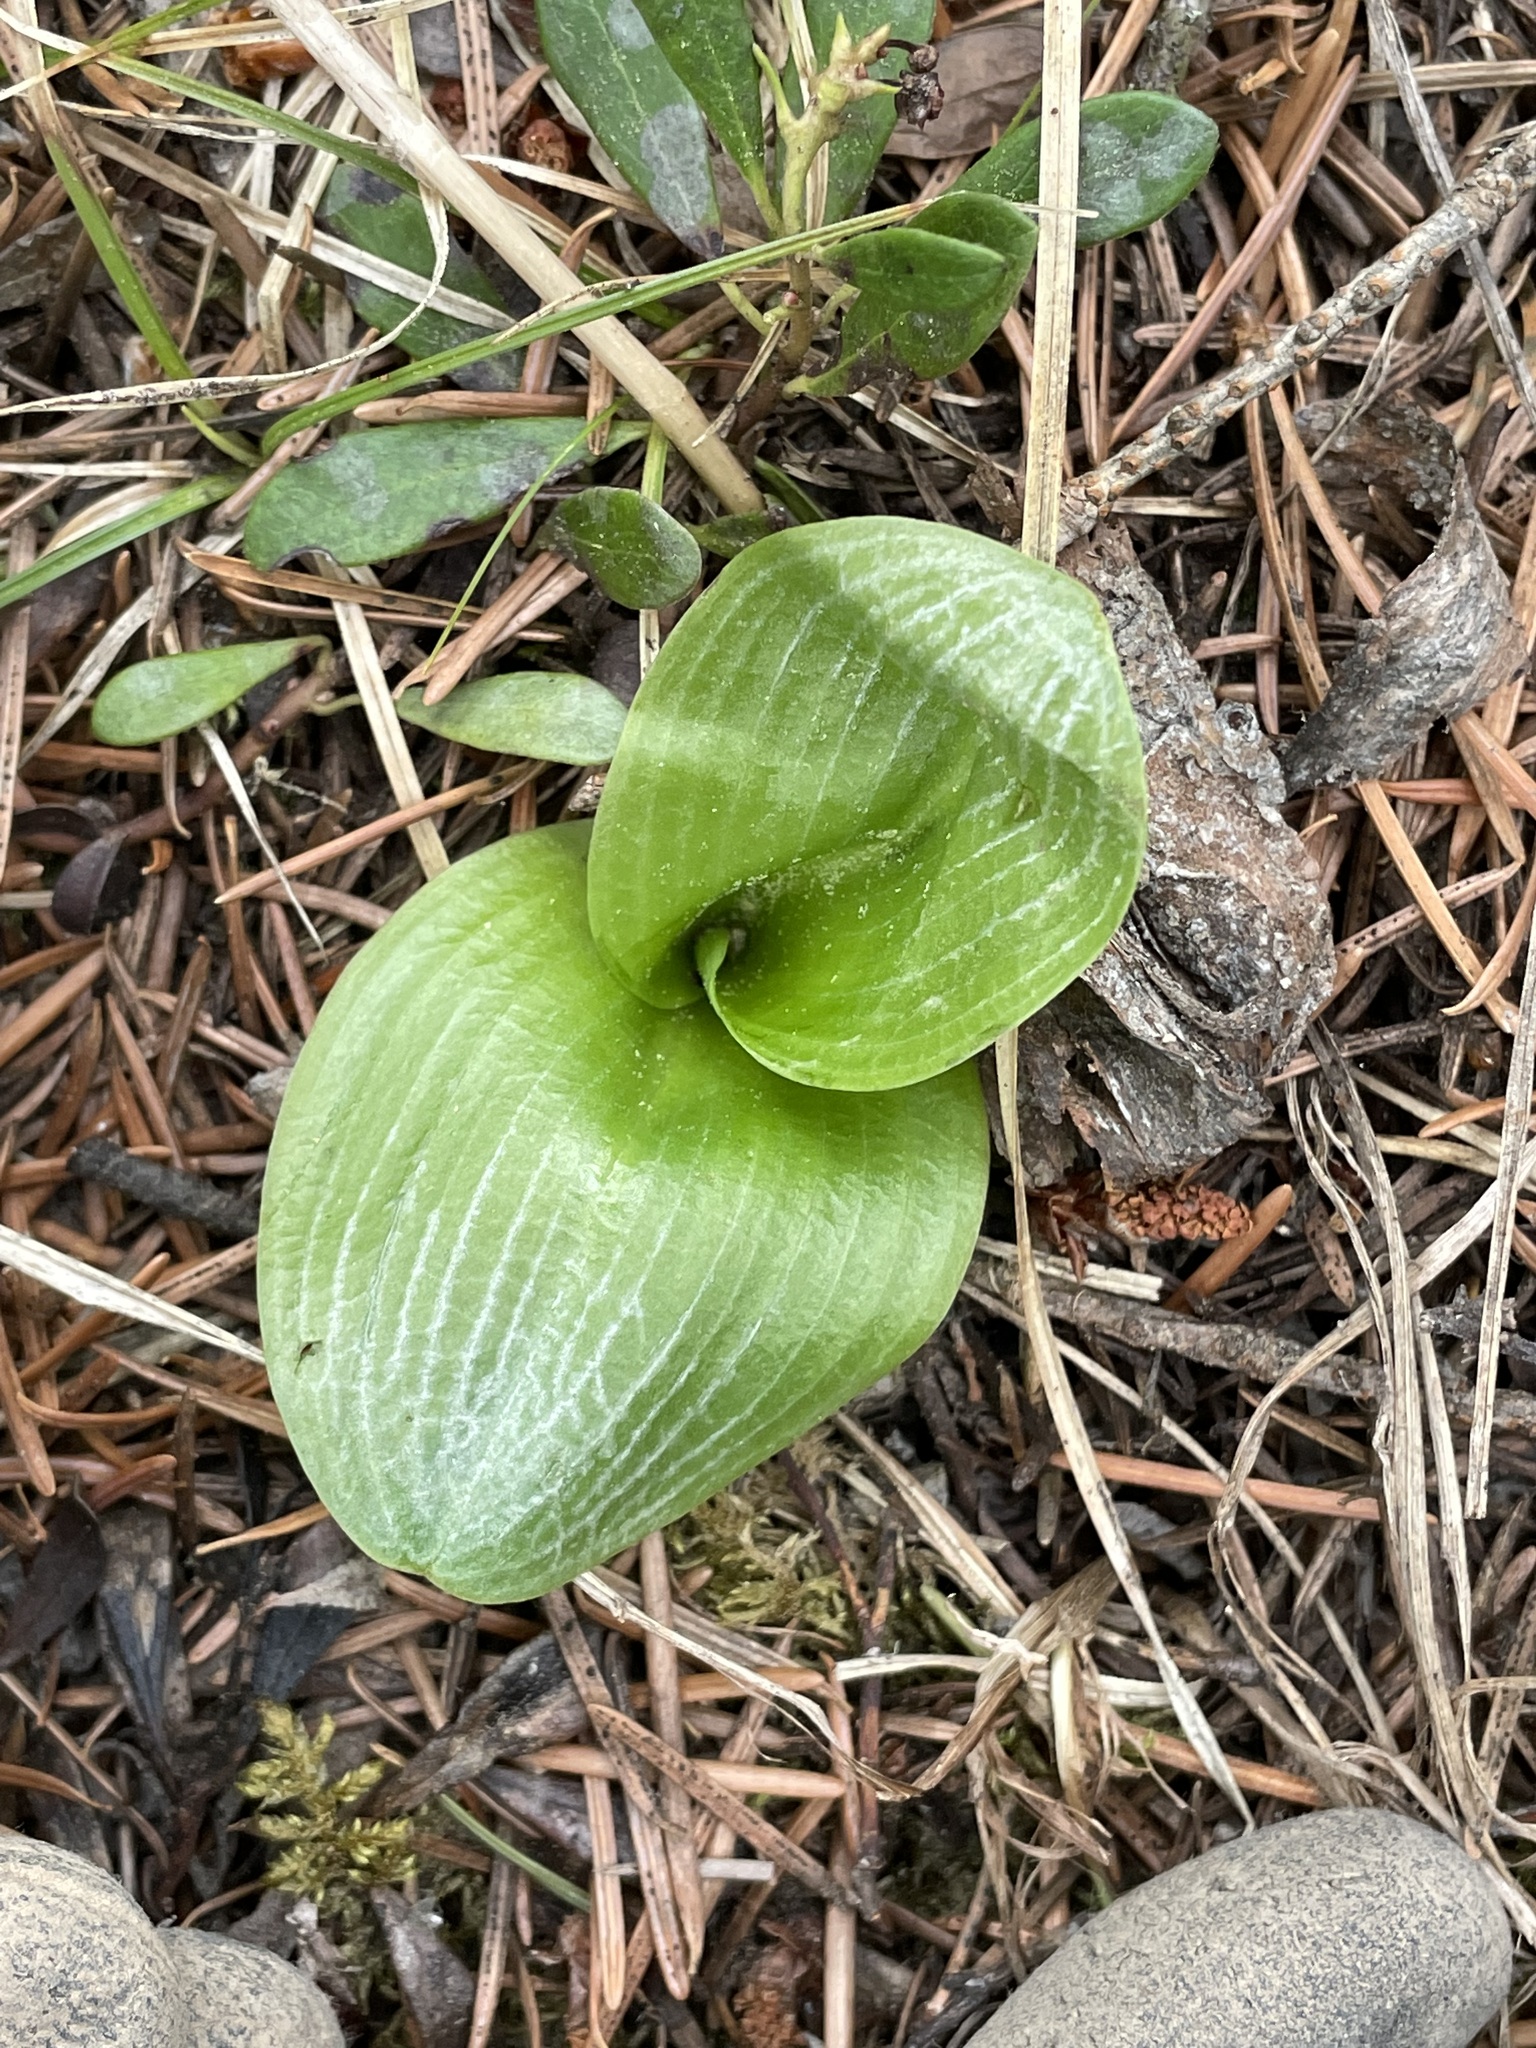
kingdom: Plantae
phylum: Tracheophyta
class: Liliopsida
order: Asparagales
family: Orchidaceae
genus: Platanthera
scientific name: Platanthera orbiculata
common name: Large round-leaved orchid
